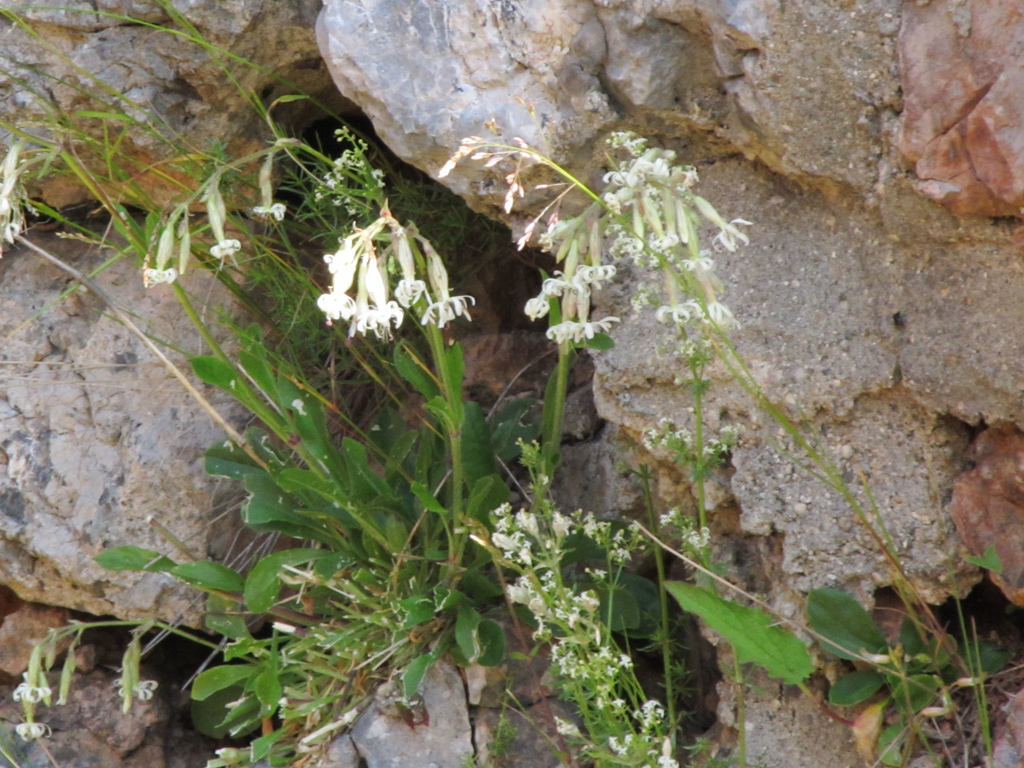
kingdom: Plantae
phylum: Tracheophyta
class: Magnoliopsida
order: Caryophyllales
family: Caryophyllaceae
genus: Silene
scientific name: Silene nutans
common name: Nottingham catchfly
